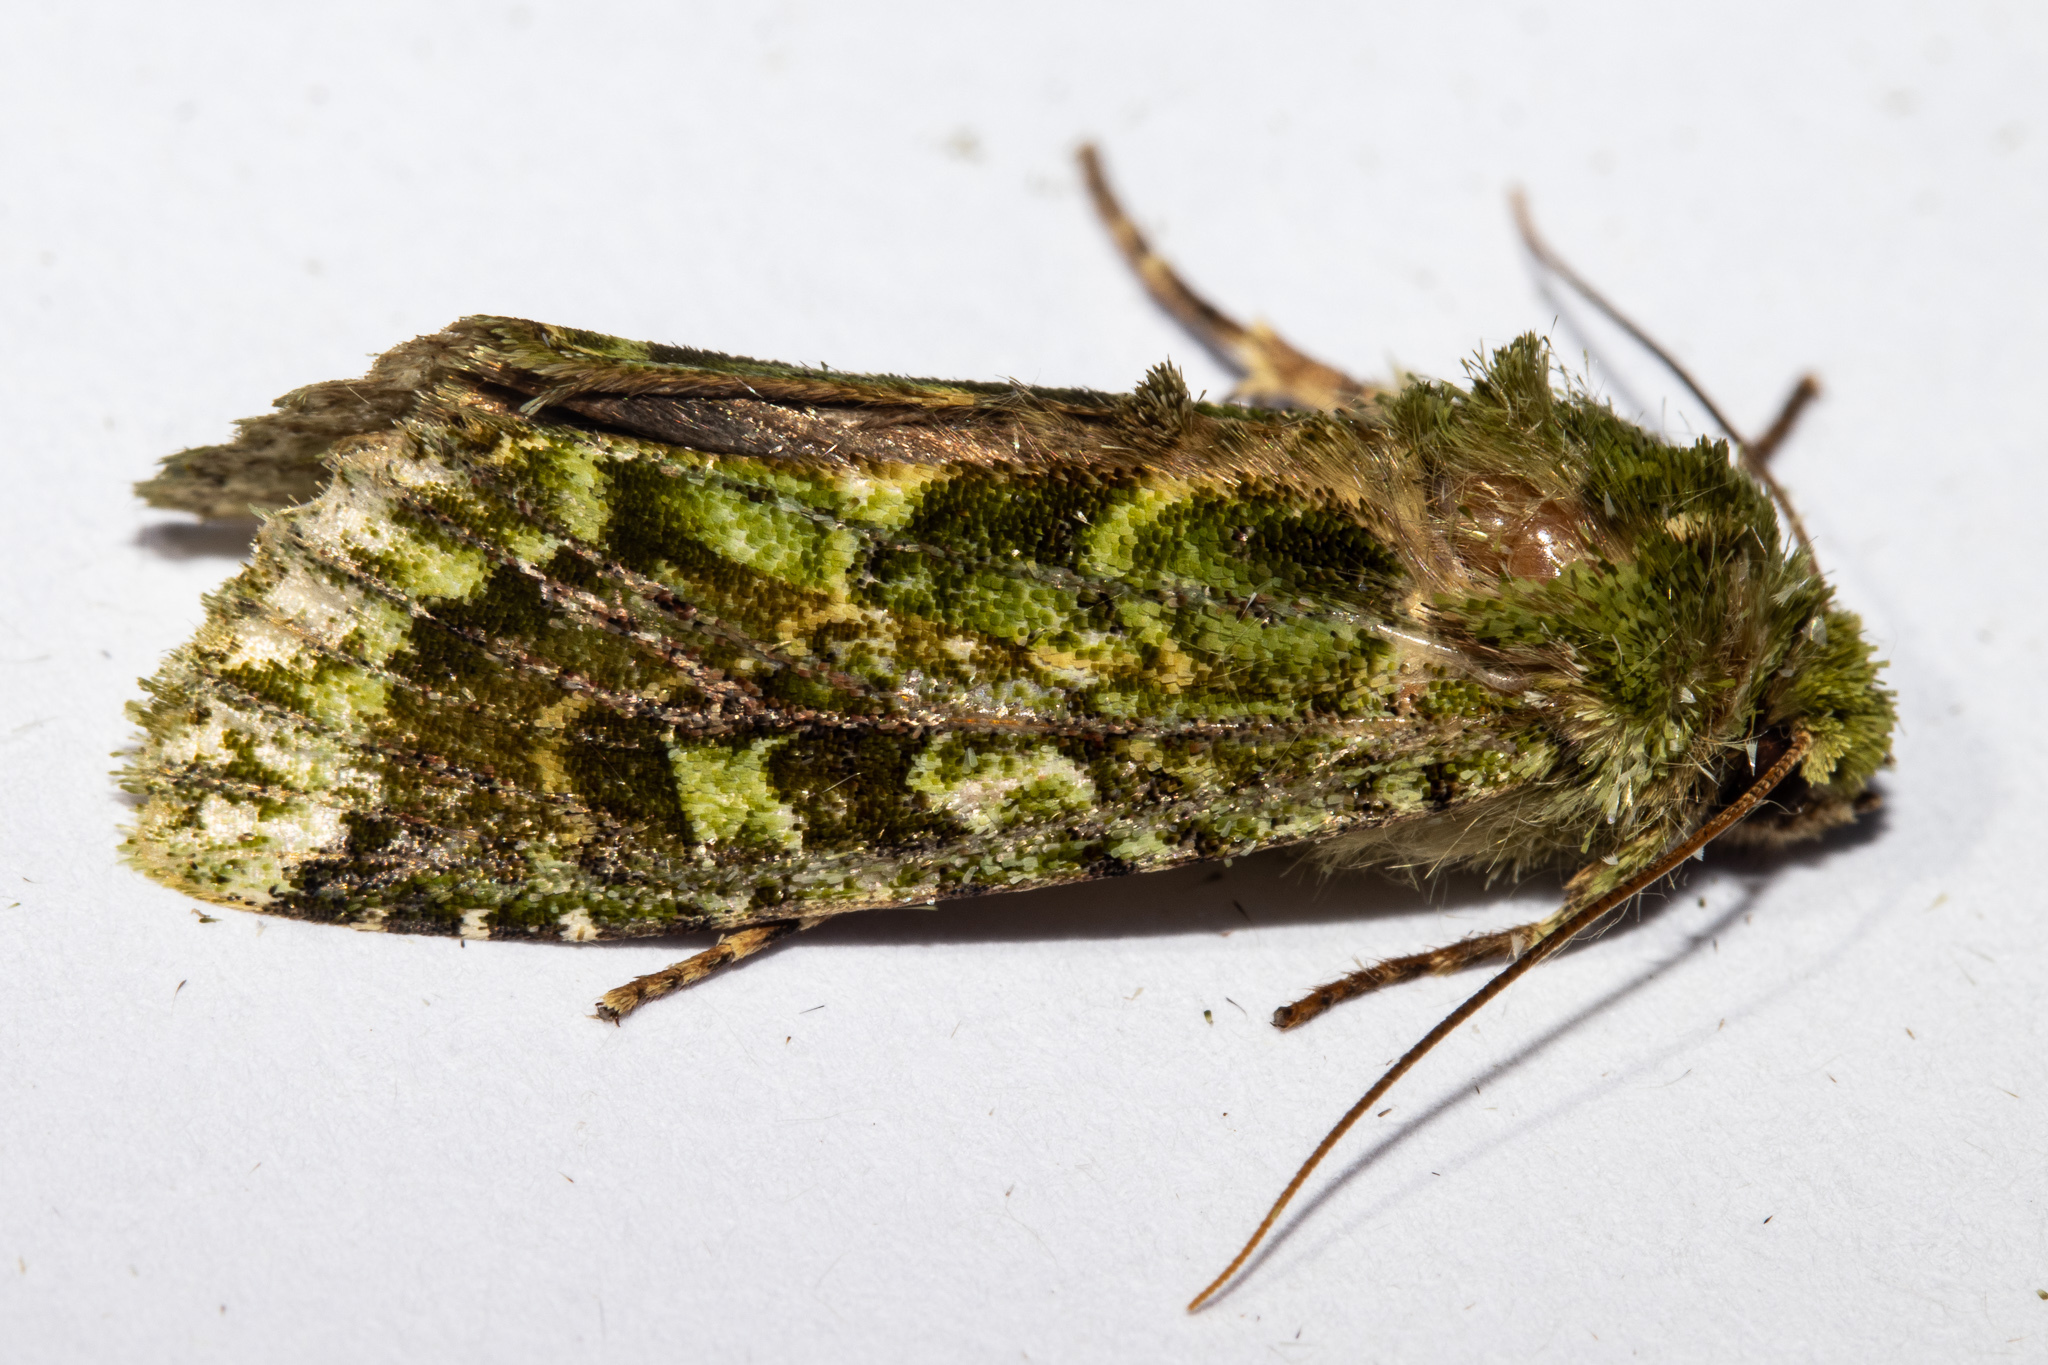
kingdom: Animalia
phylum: Arthropoda
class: Insecta
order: Lepidoptera
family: Noctuidae
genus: Feredayia
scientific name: Feredayia grammosa
